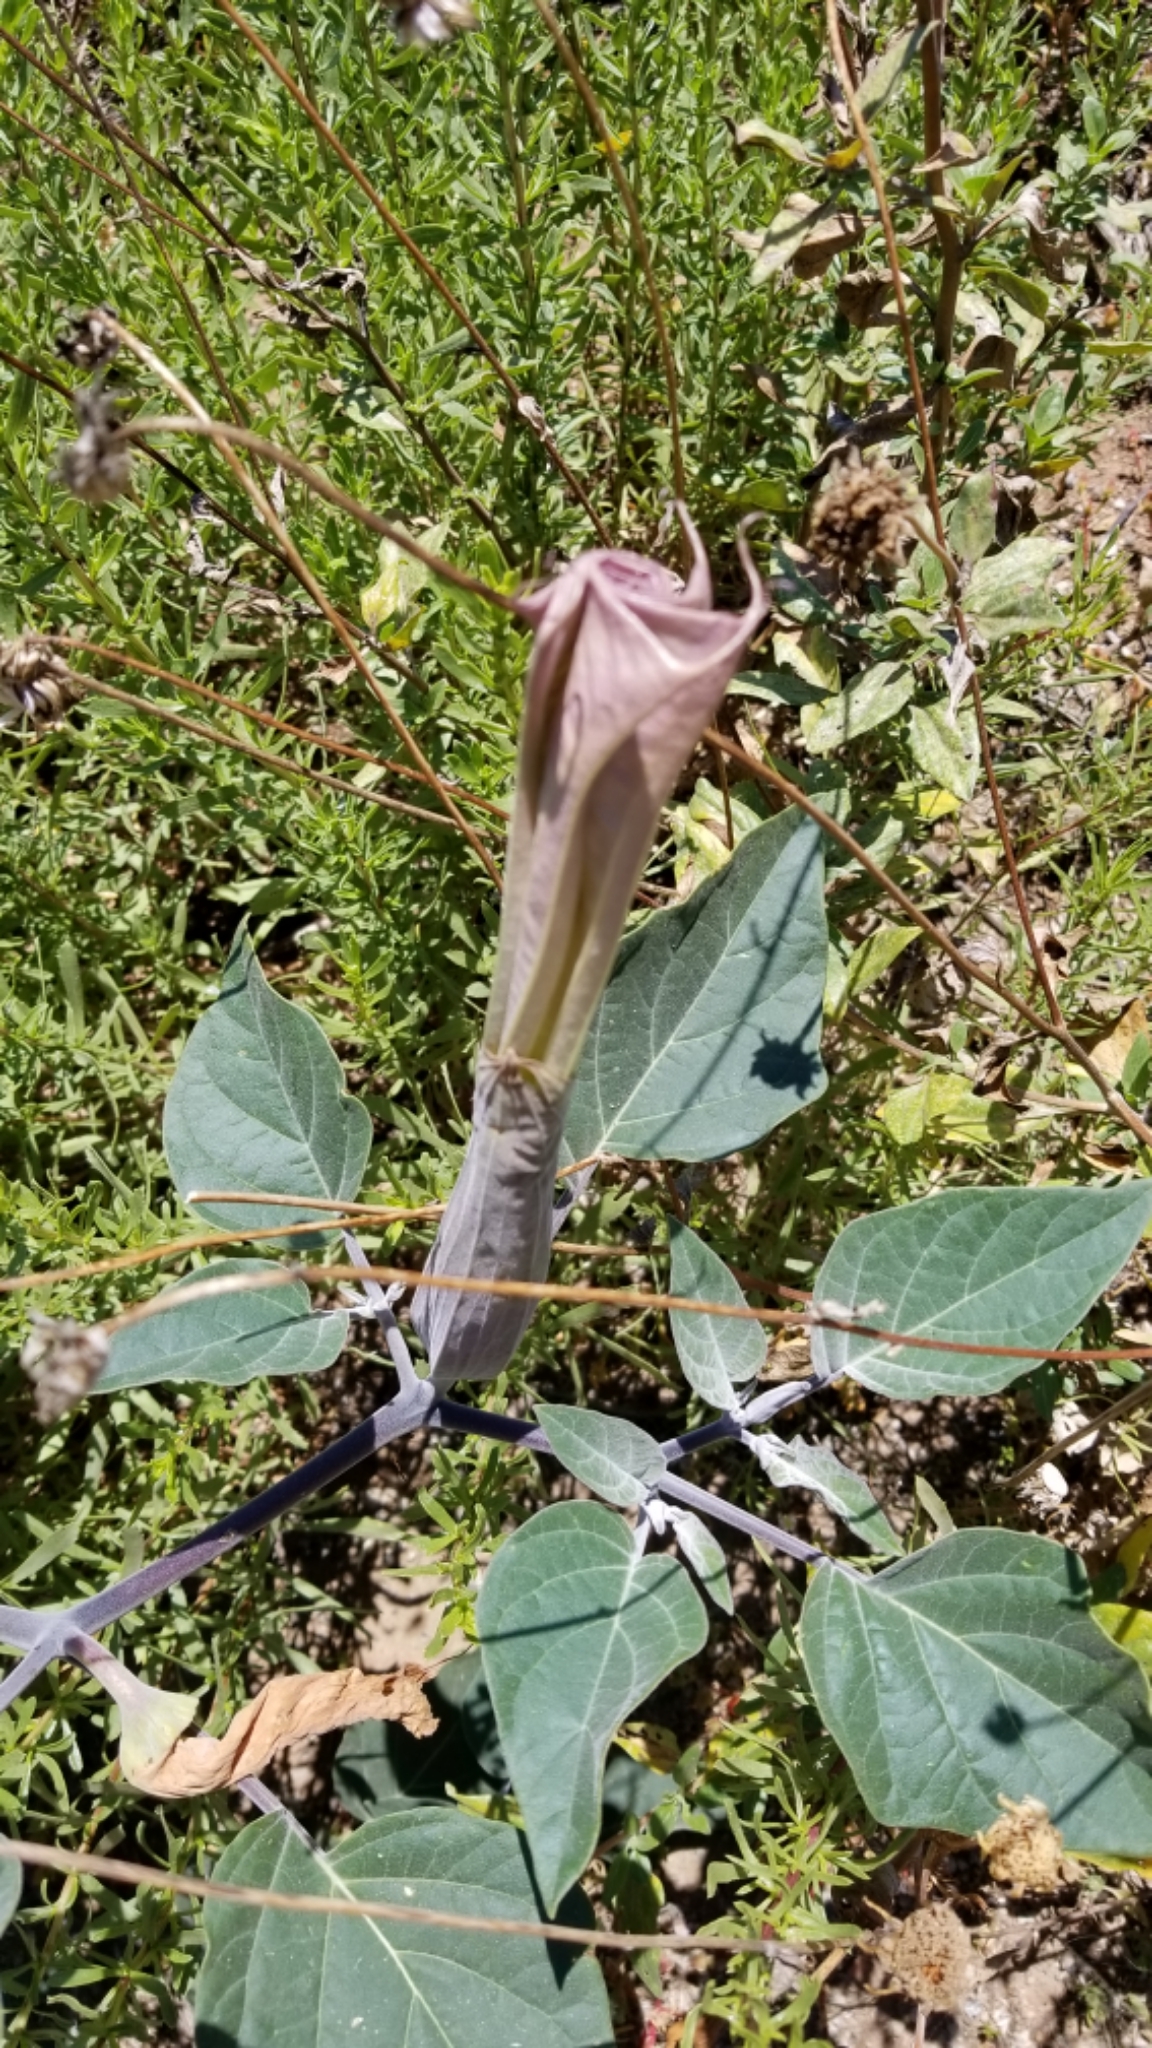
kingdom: Plantae
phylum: Tracheophyta
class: Magnoliopsida
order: Solanales
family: Solanaceae
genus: Datura
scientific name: Datura wrightii
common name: Sacred thorn-apple
